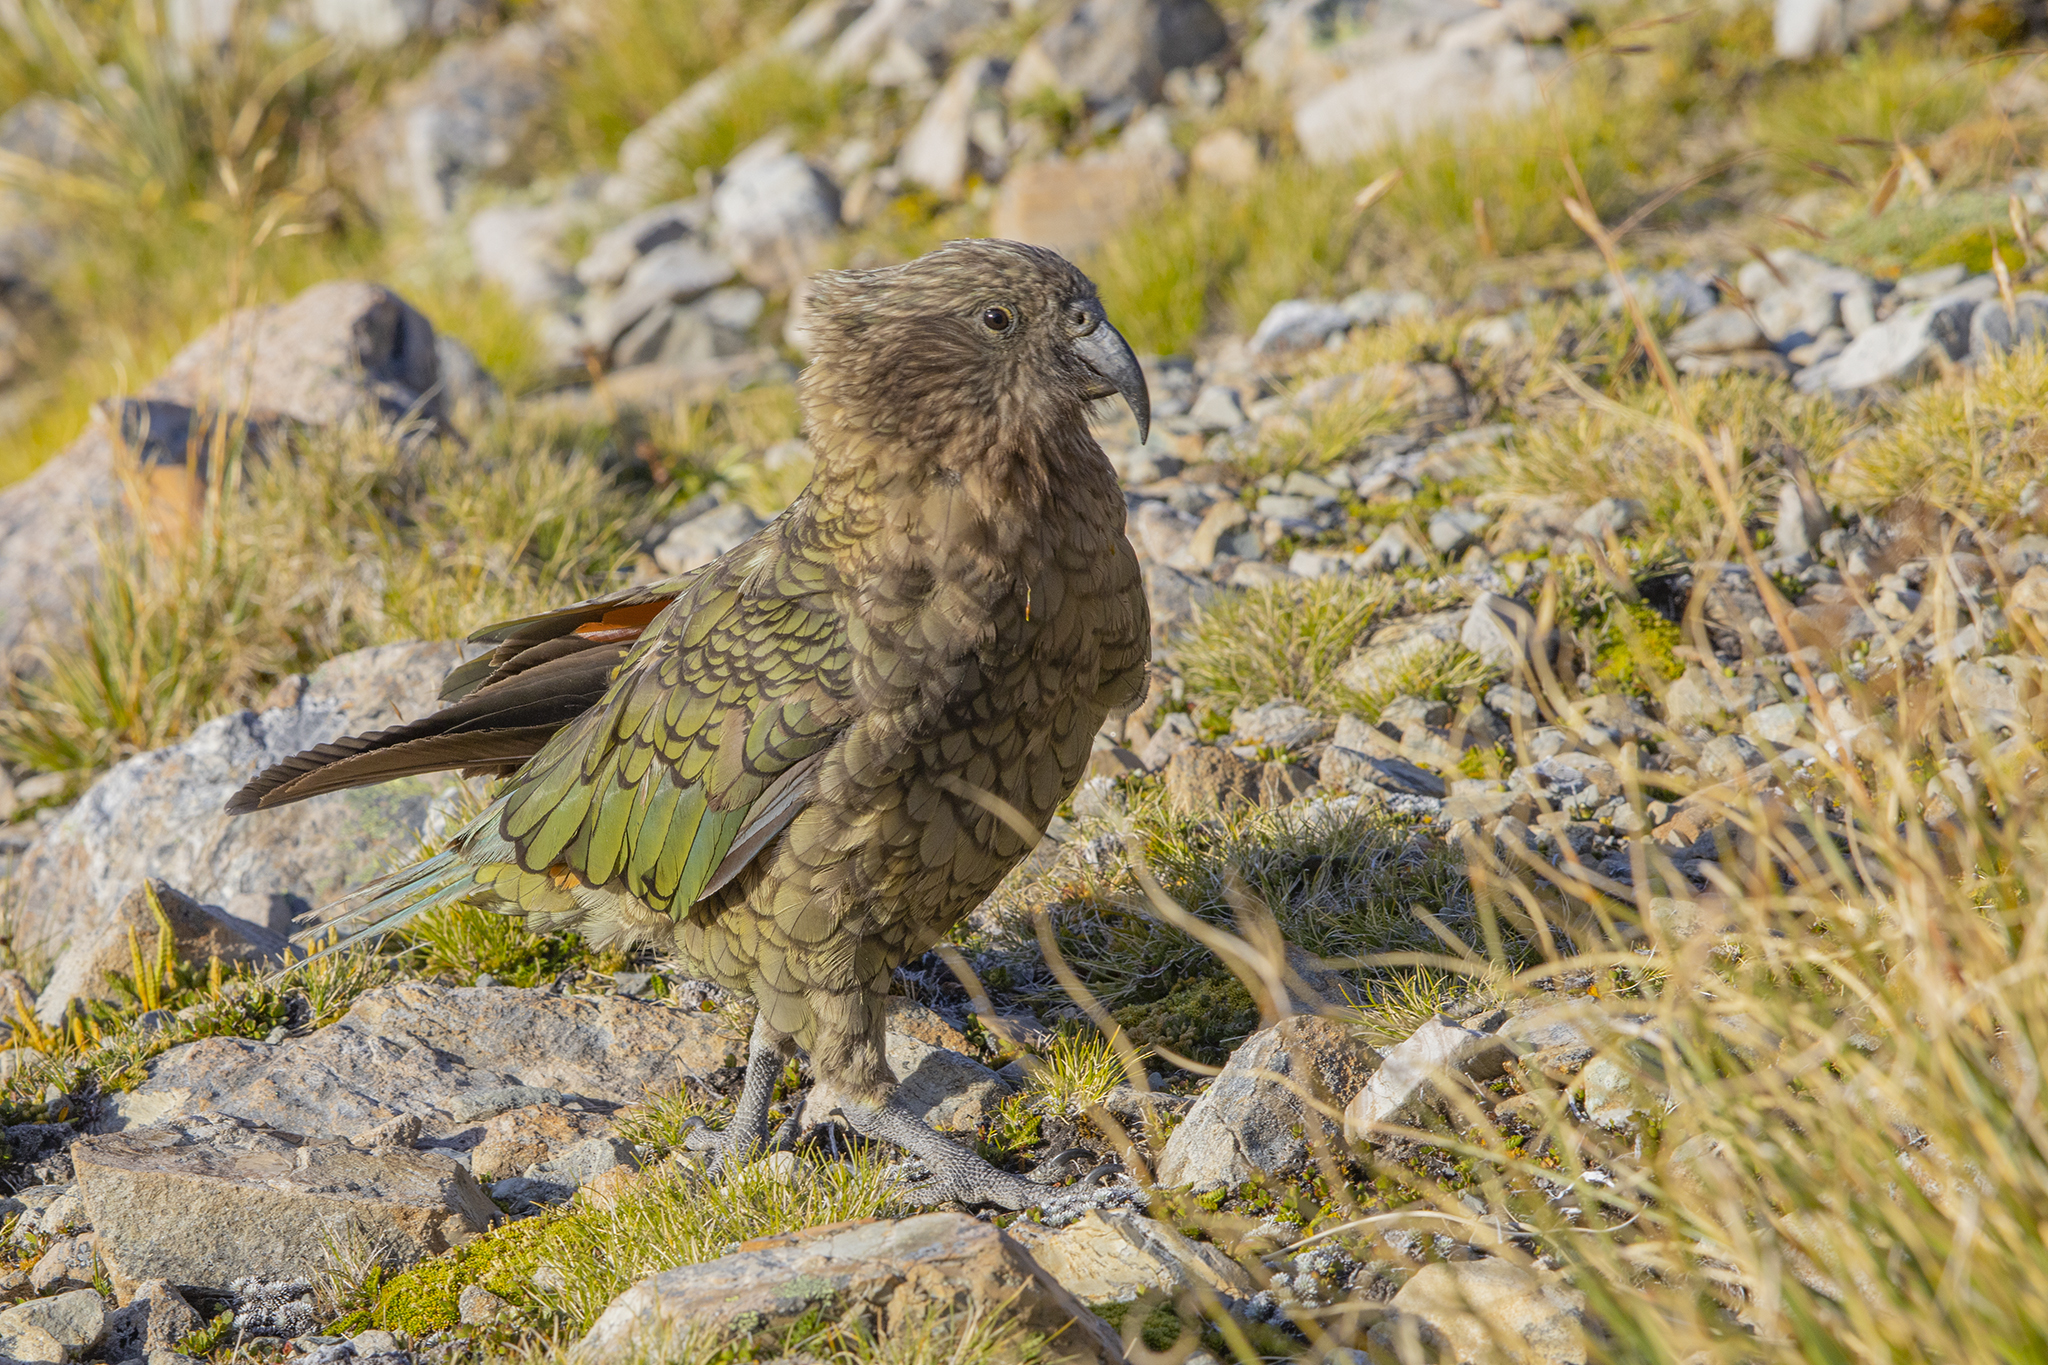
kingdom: Animalia
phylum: Chordata
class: Aves
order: Psittaciformes
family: Psittacidae
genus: Nestor
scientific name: Nestor notabilis
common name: Kea
